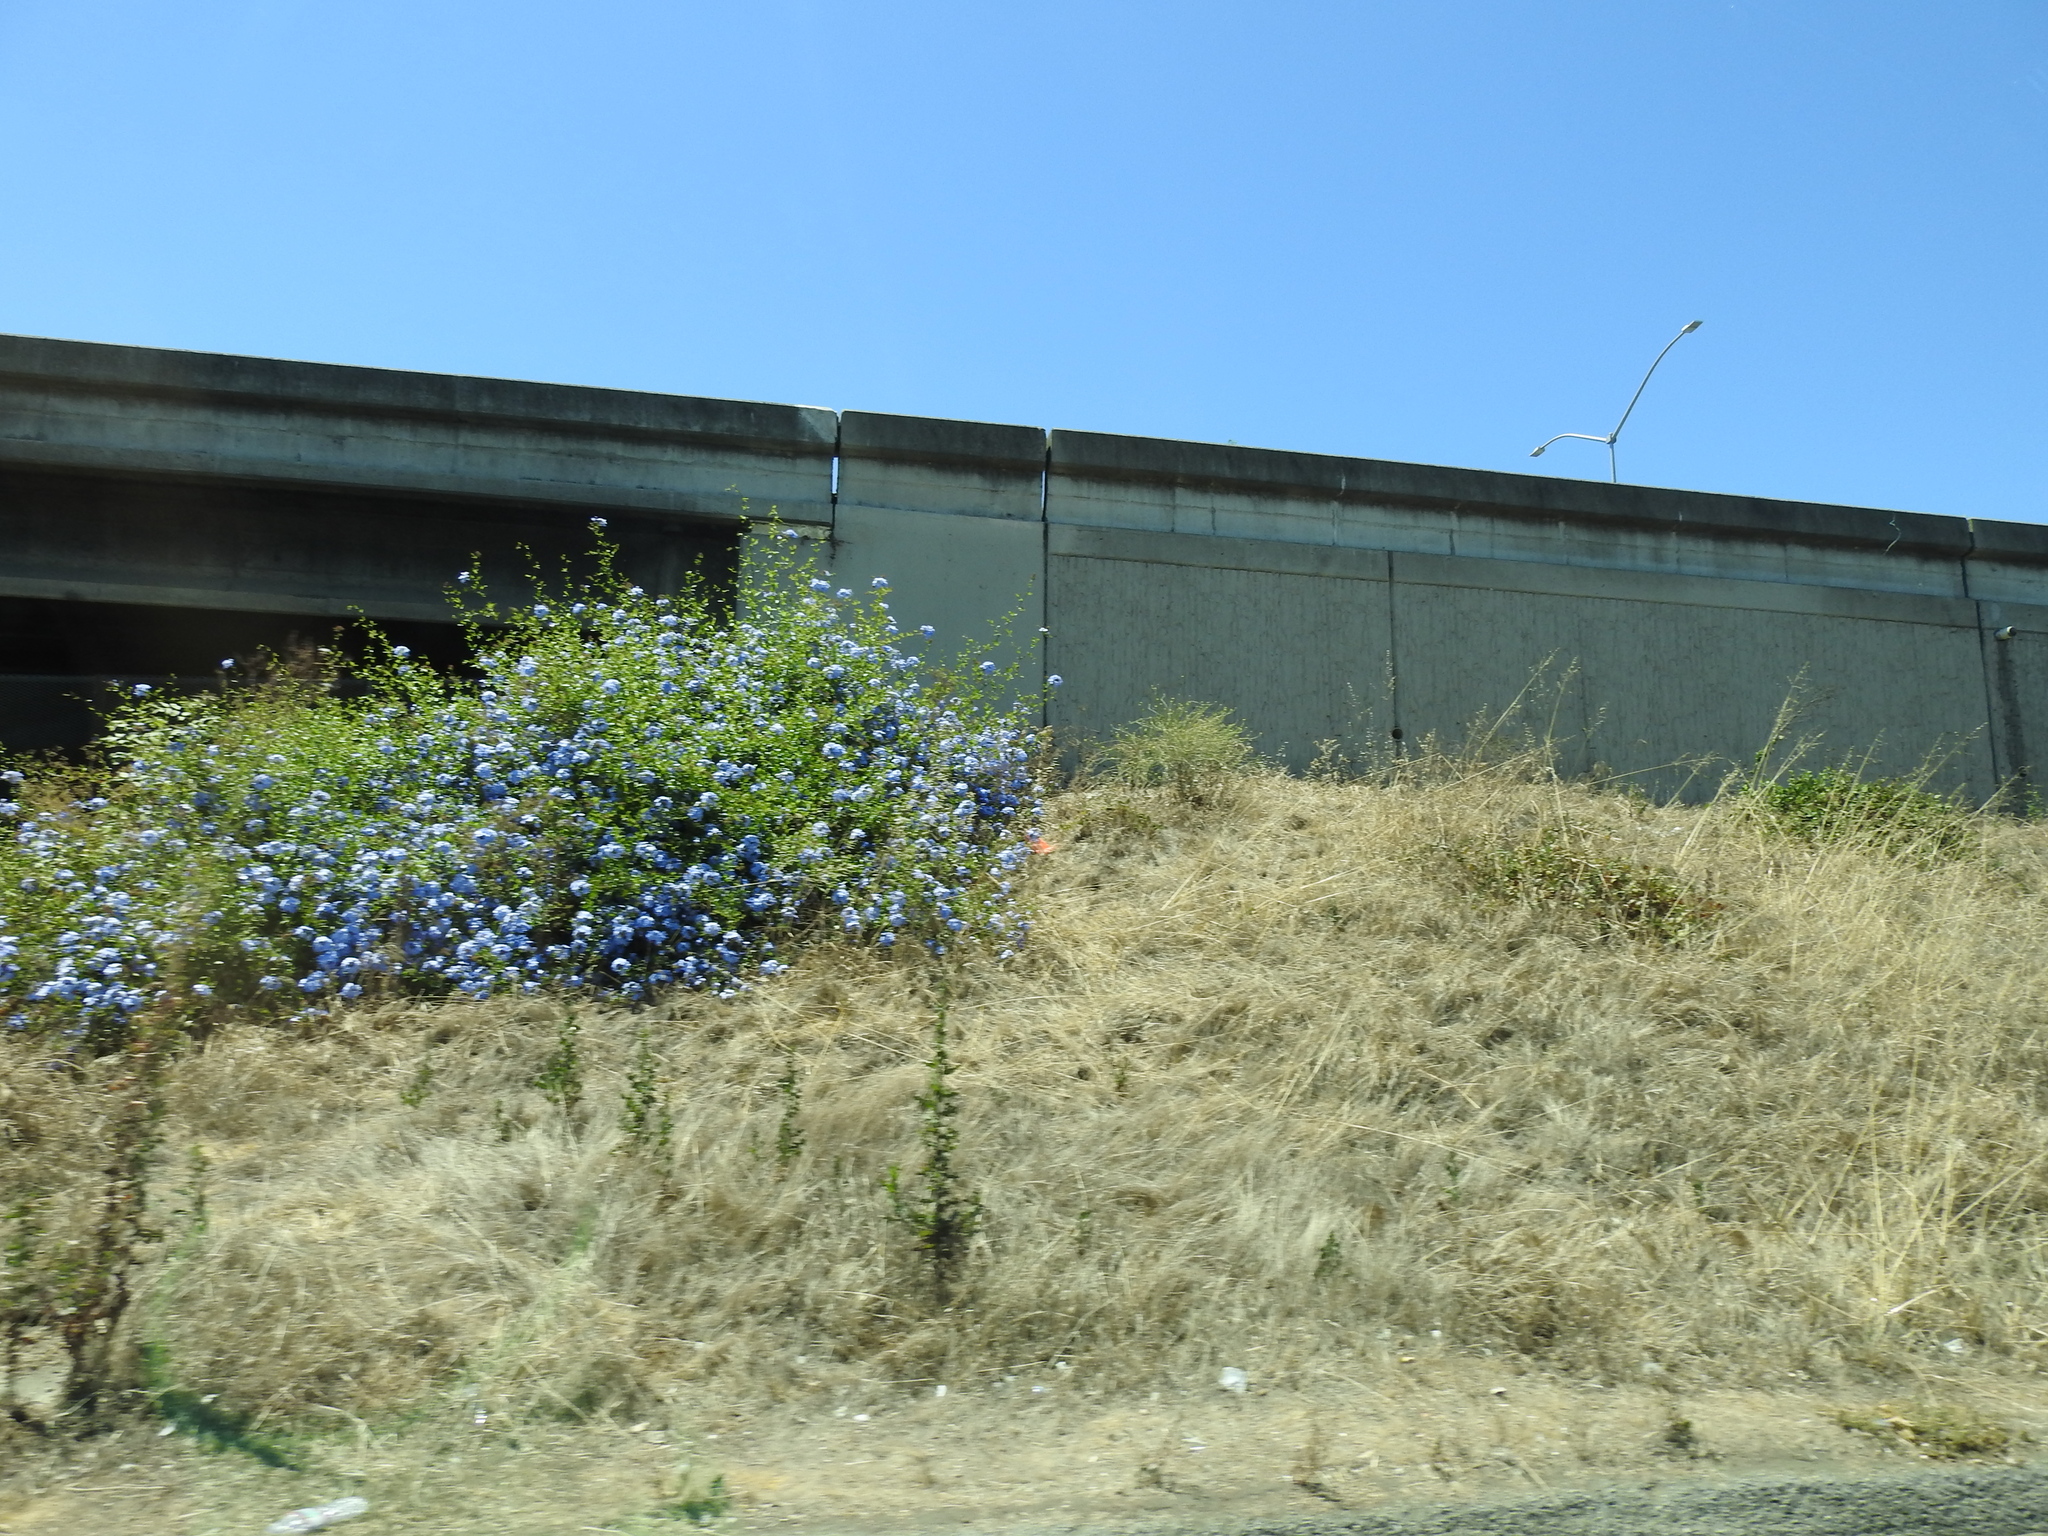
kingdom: Plantae
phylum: Tracheophyta
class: Magnoliopsida
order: Caryophyllales
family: Plumbaginaceae
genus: Plumbago
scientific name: Plumbago auriculata
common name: Cape leadwort
